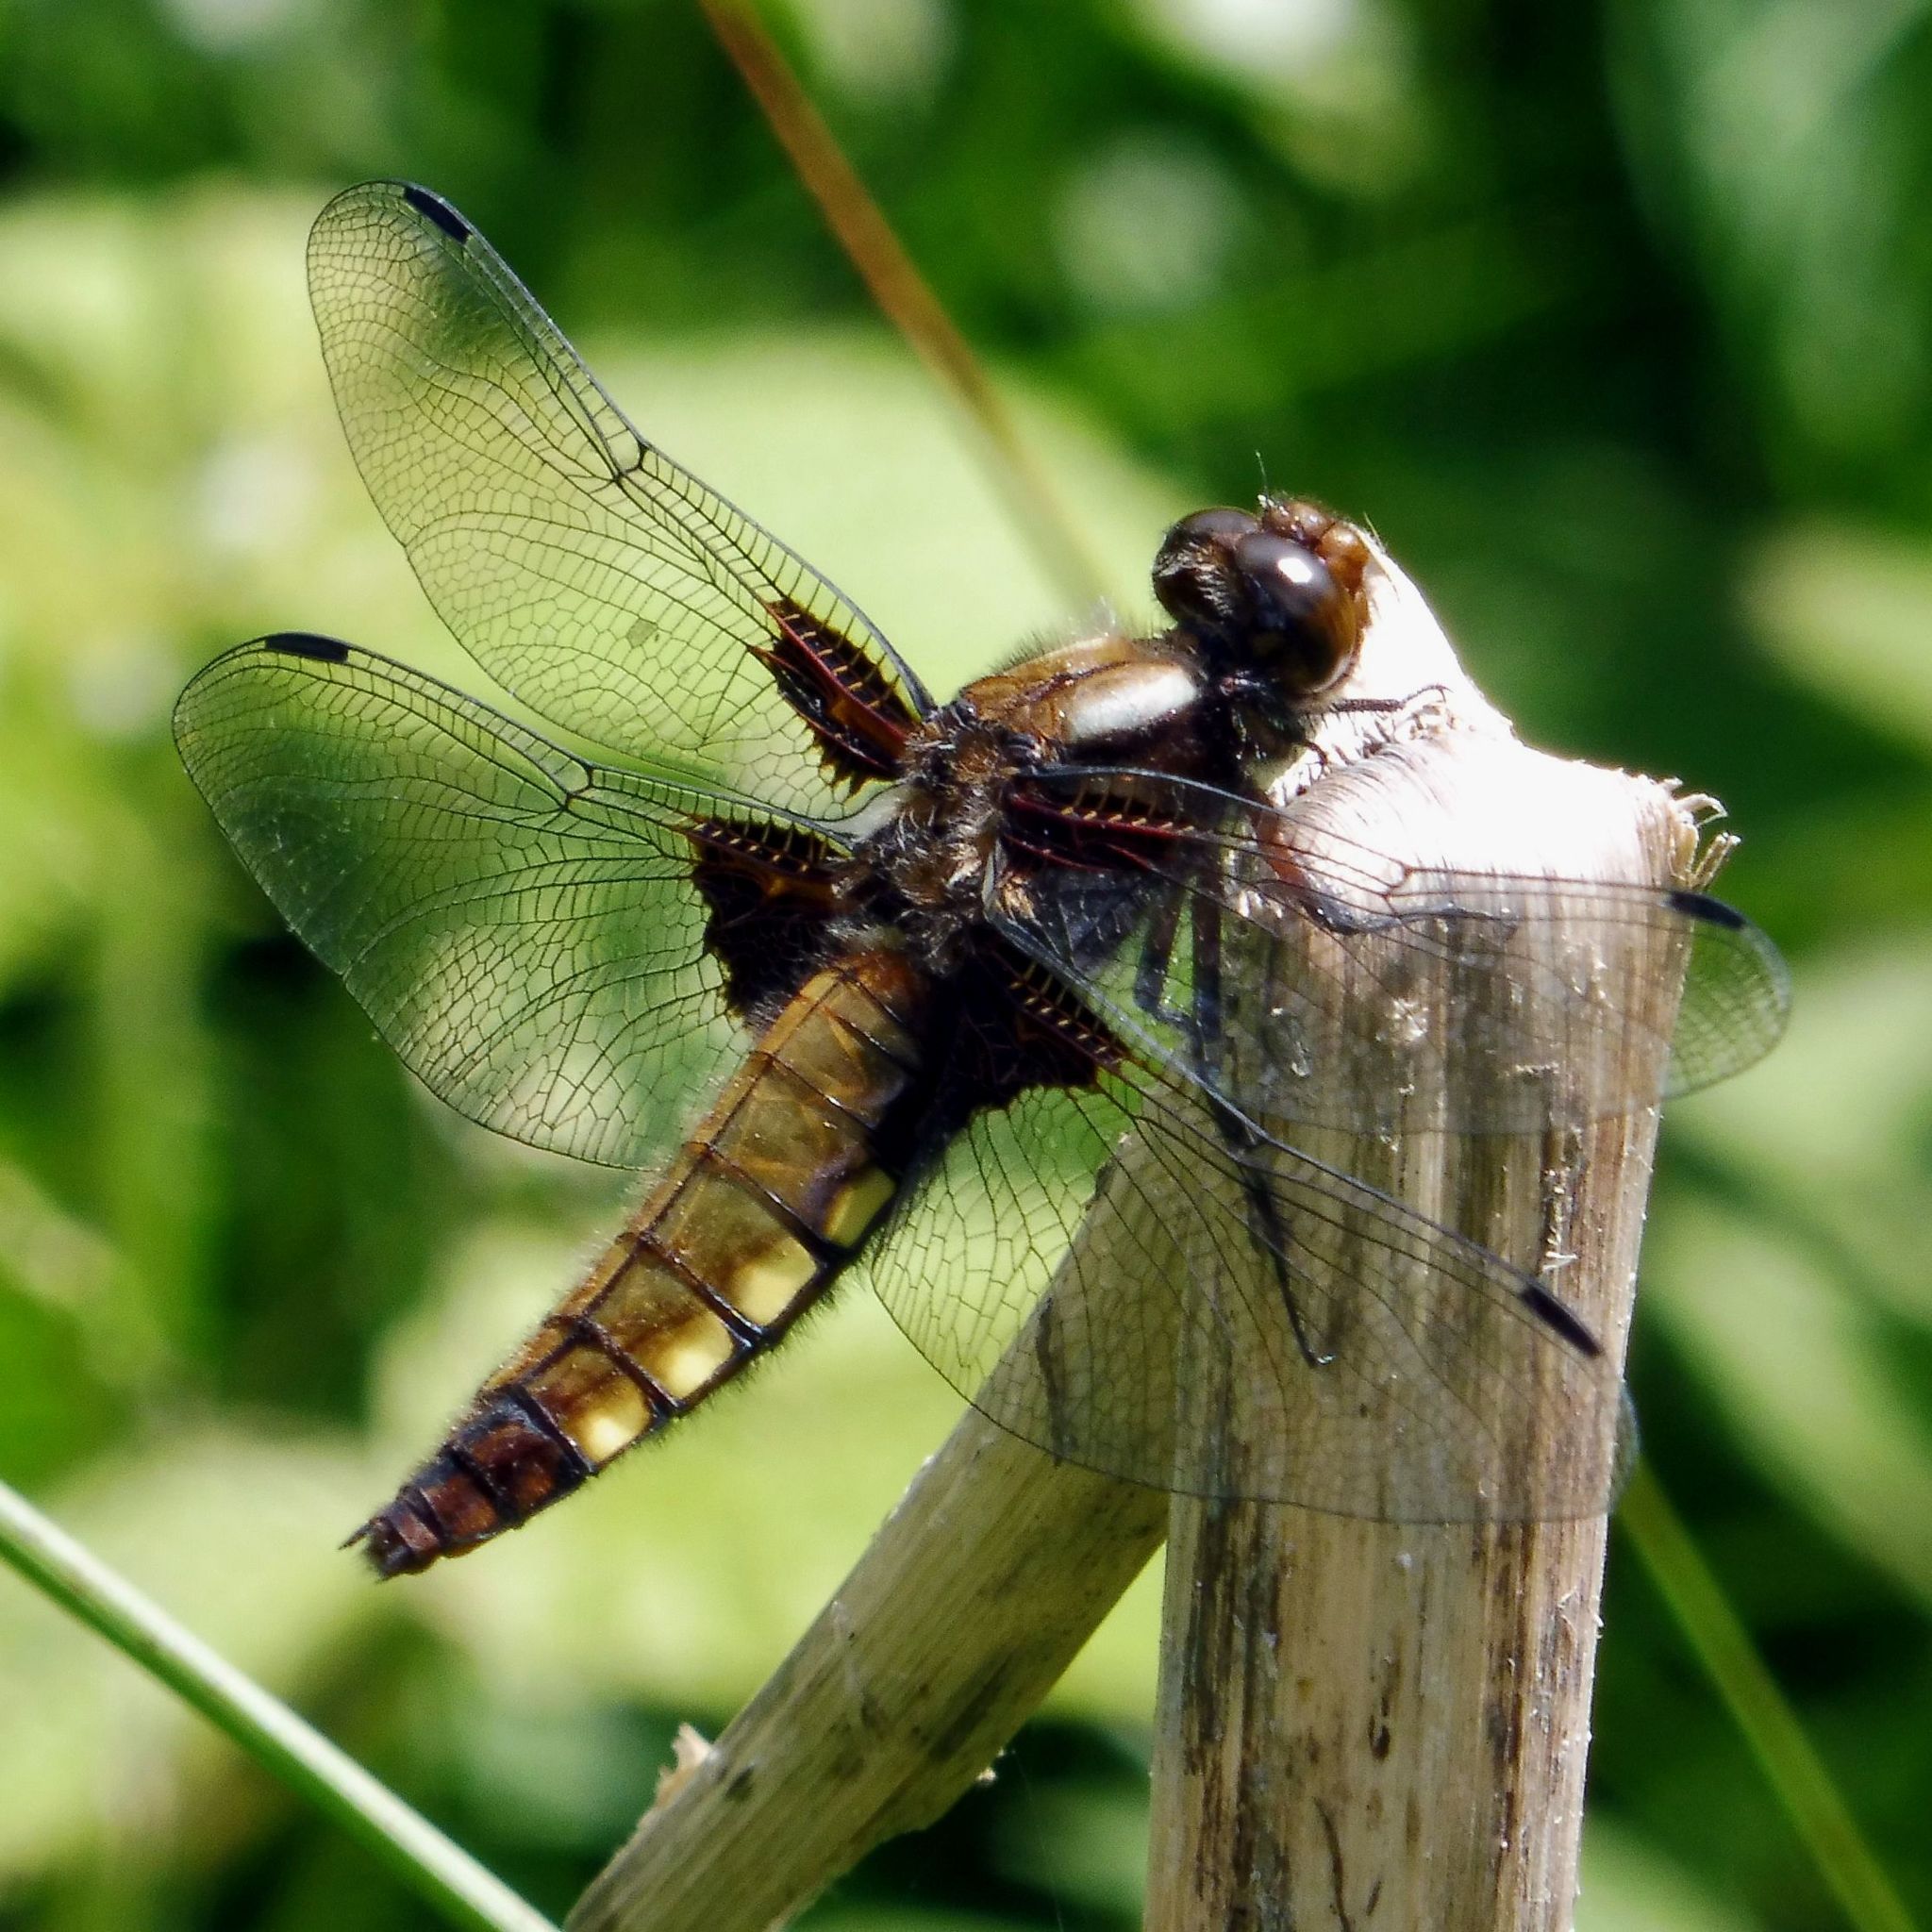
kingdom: Animalia
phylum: Arthropoda
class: Insecta
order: Odonata
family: Libellulidae
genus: Libellula
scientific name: Libellula depressa
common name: Broad-bodied chaser
